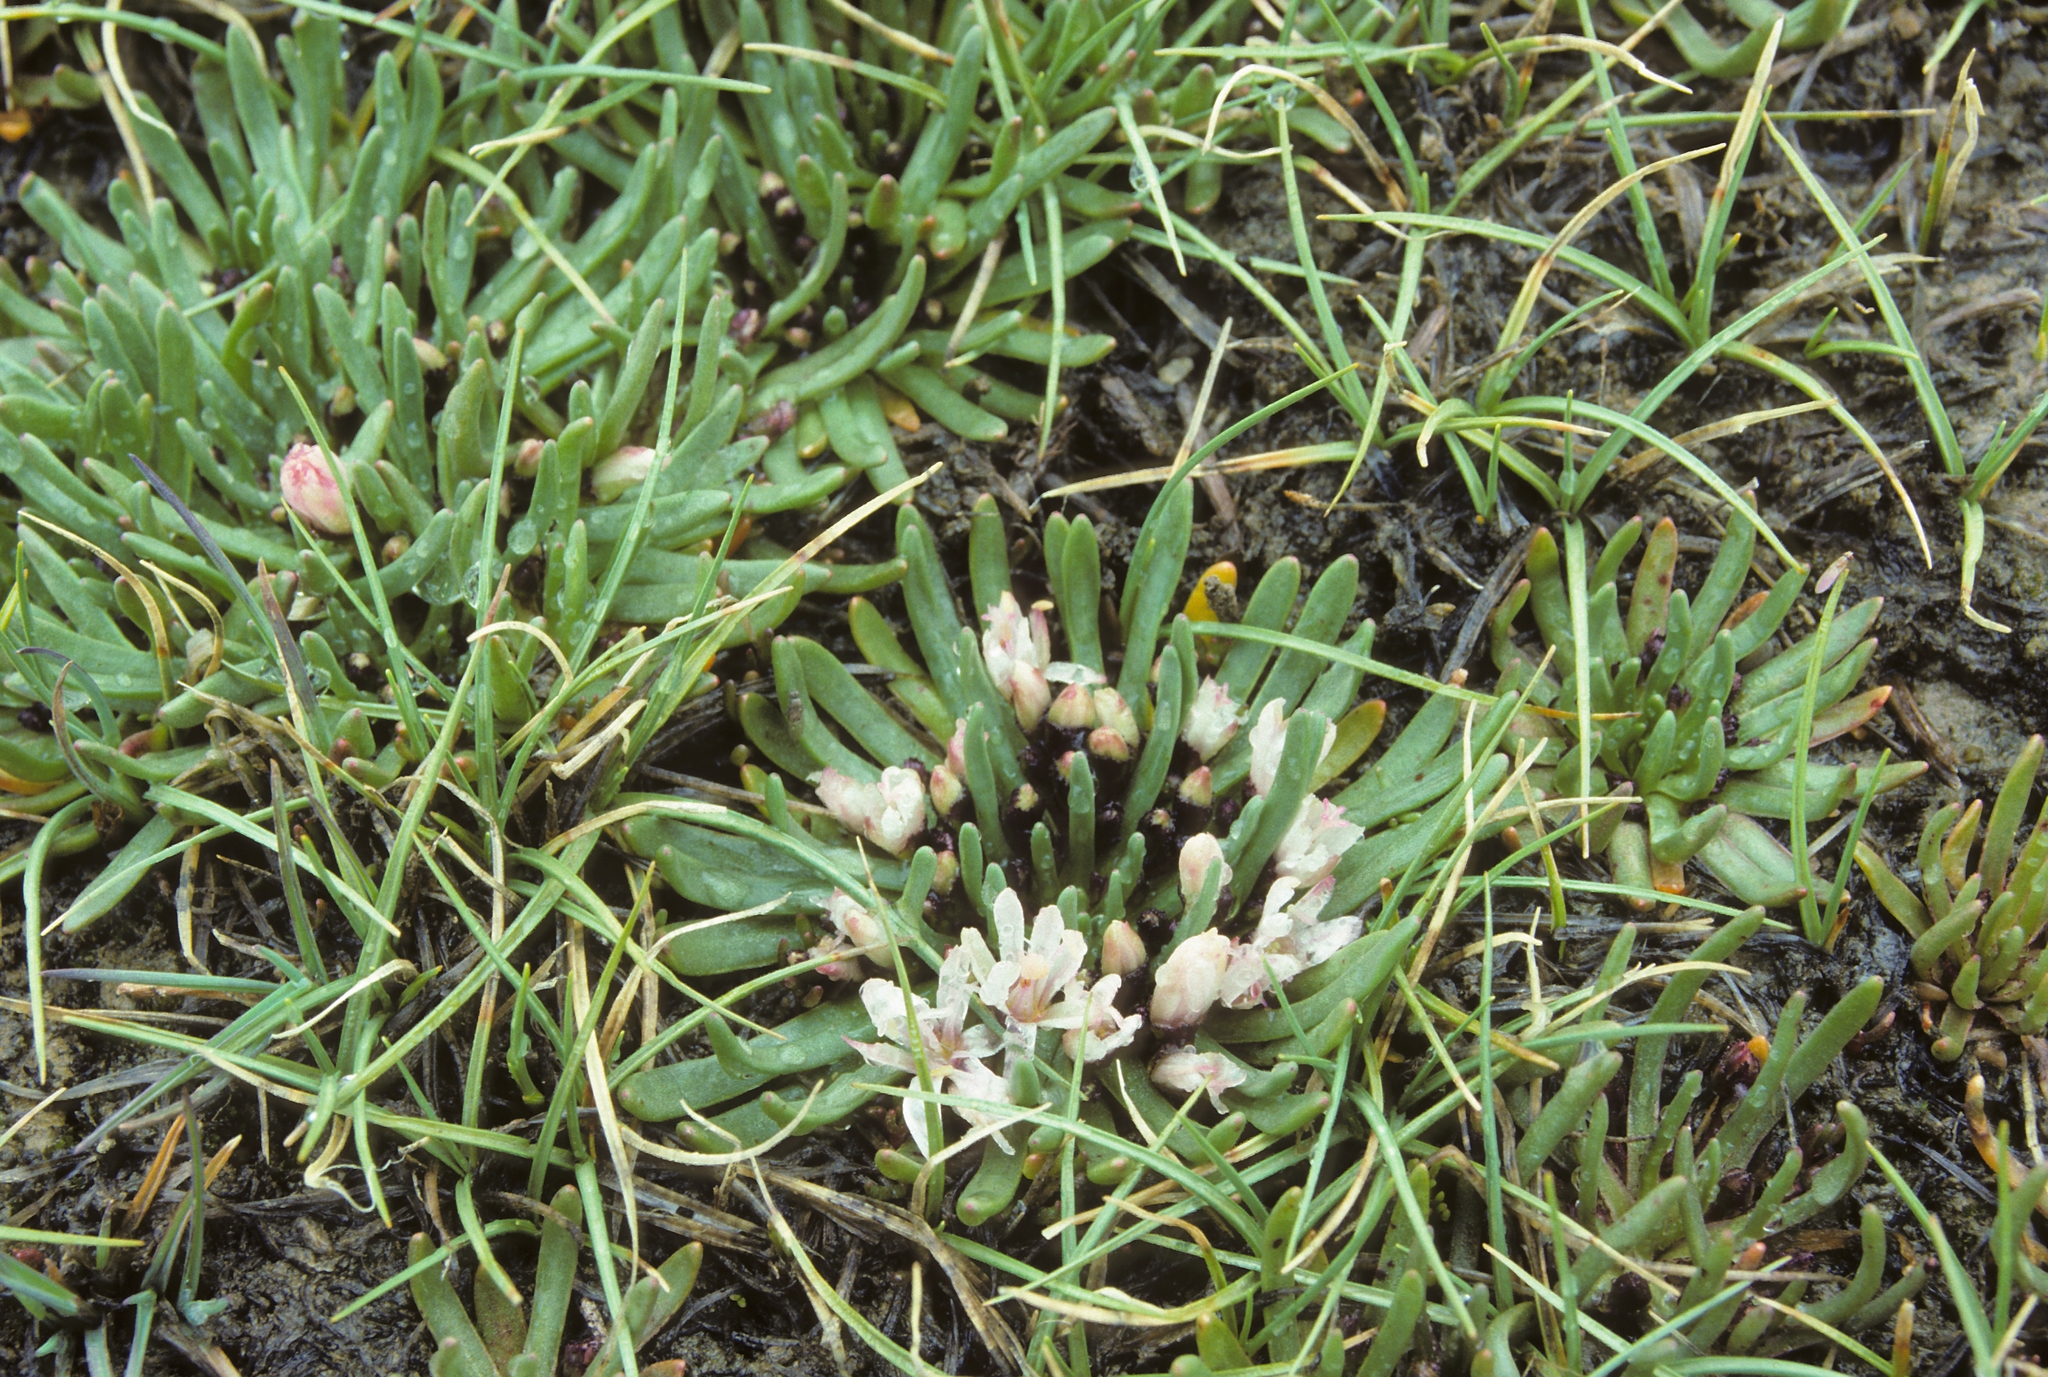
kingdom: Plantae
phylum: Tracheophyta
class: Magnoliopsida
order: Caryophyllales
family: Montiaceae
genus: Lewisia
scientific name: Lewisia glandulosa
